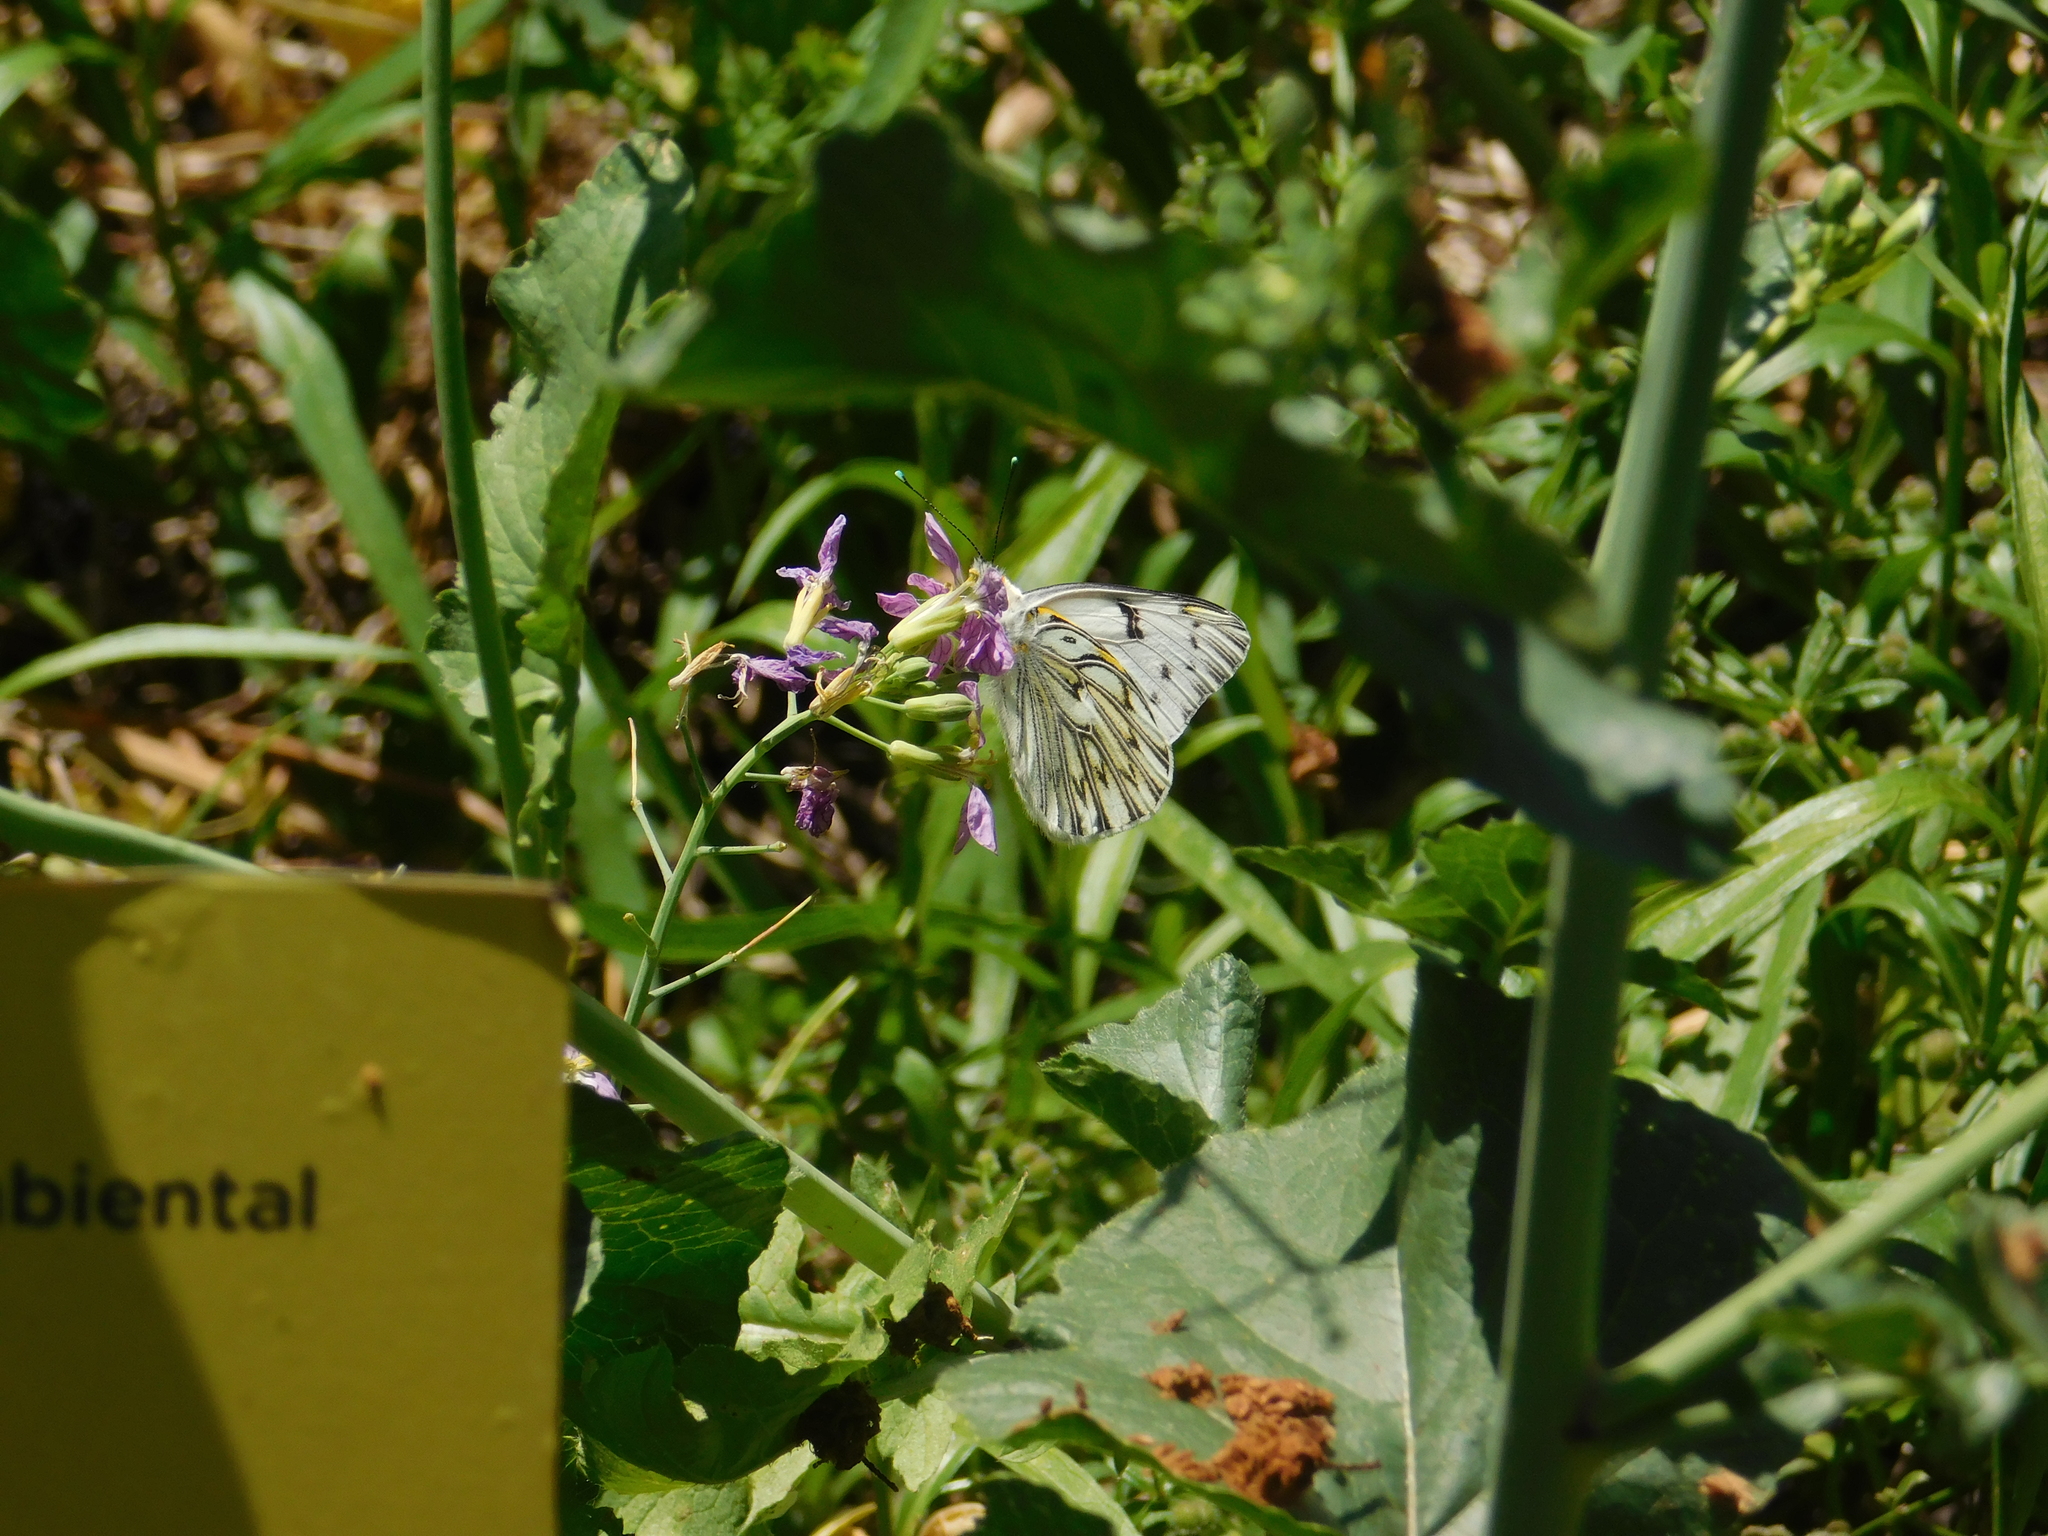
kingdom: Animalia
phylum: Arthropoda
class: Insecta
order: Lepidoptera
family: Pieridae
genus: Tatochila
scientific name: Tatochila autodice
